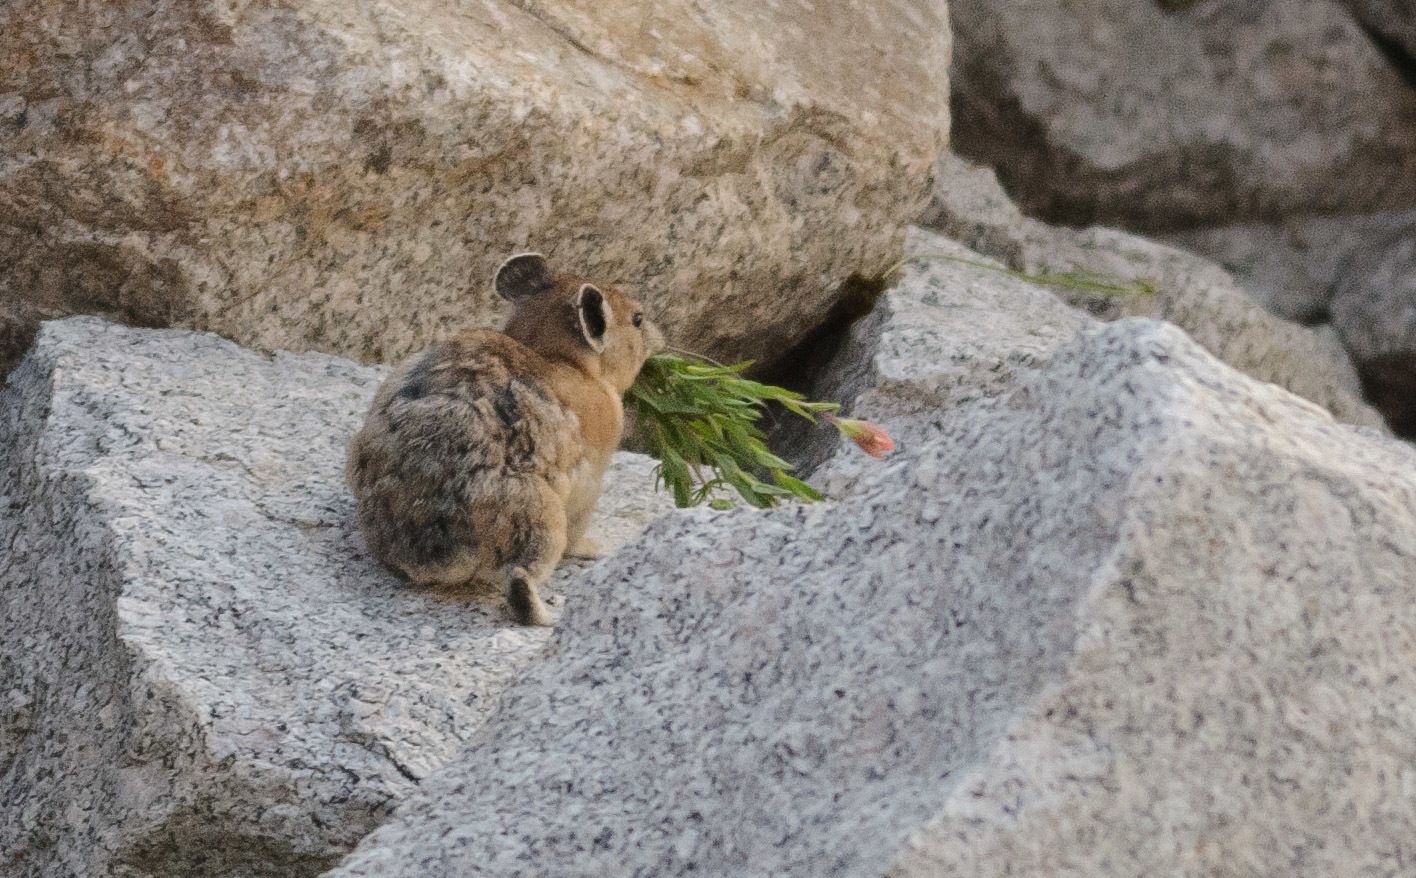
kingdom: Animalia
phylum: Chordata
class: Mammalia
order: Lagomorpha
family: Ochotonidae
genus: Ochotona
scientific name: Ochotona princeps
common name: American pika
